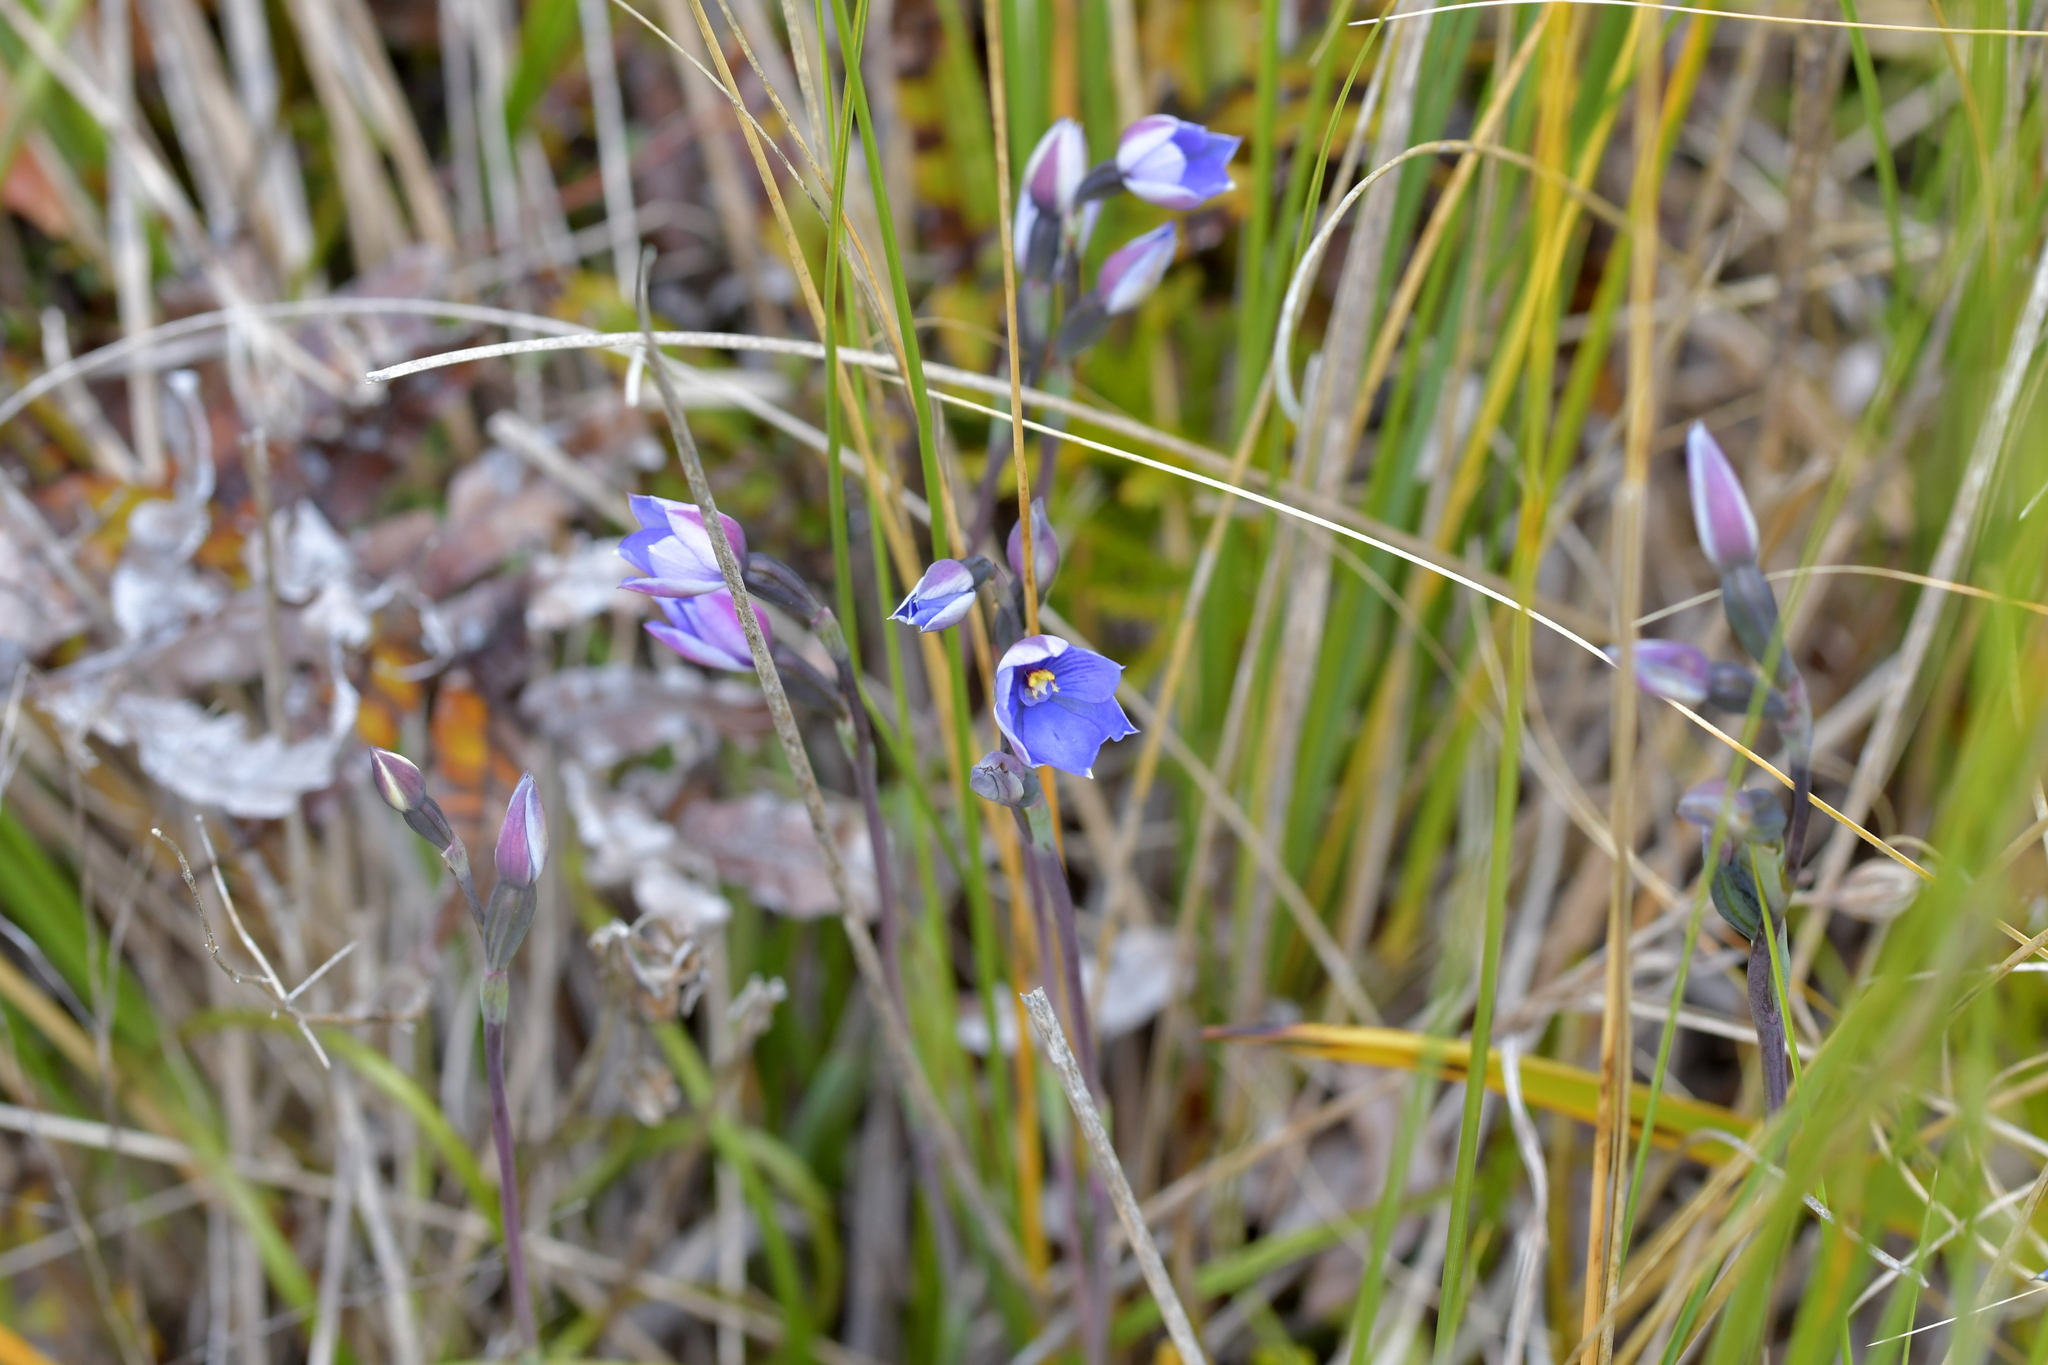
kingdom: Plantae
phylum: Tracheophyta
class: Liliopsida
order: Asparagales
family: Orchidaceae
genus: Thelymitra
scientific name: Thelymitra pulchella
